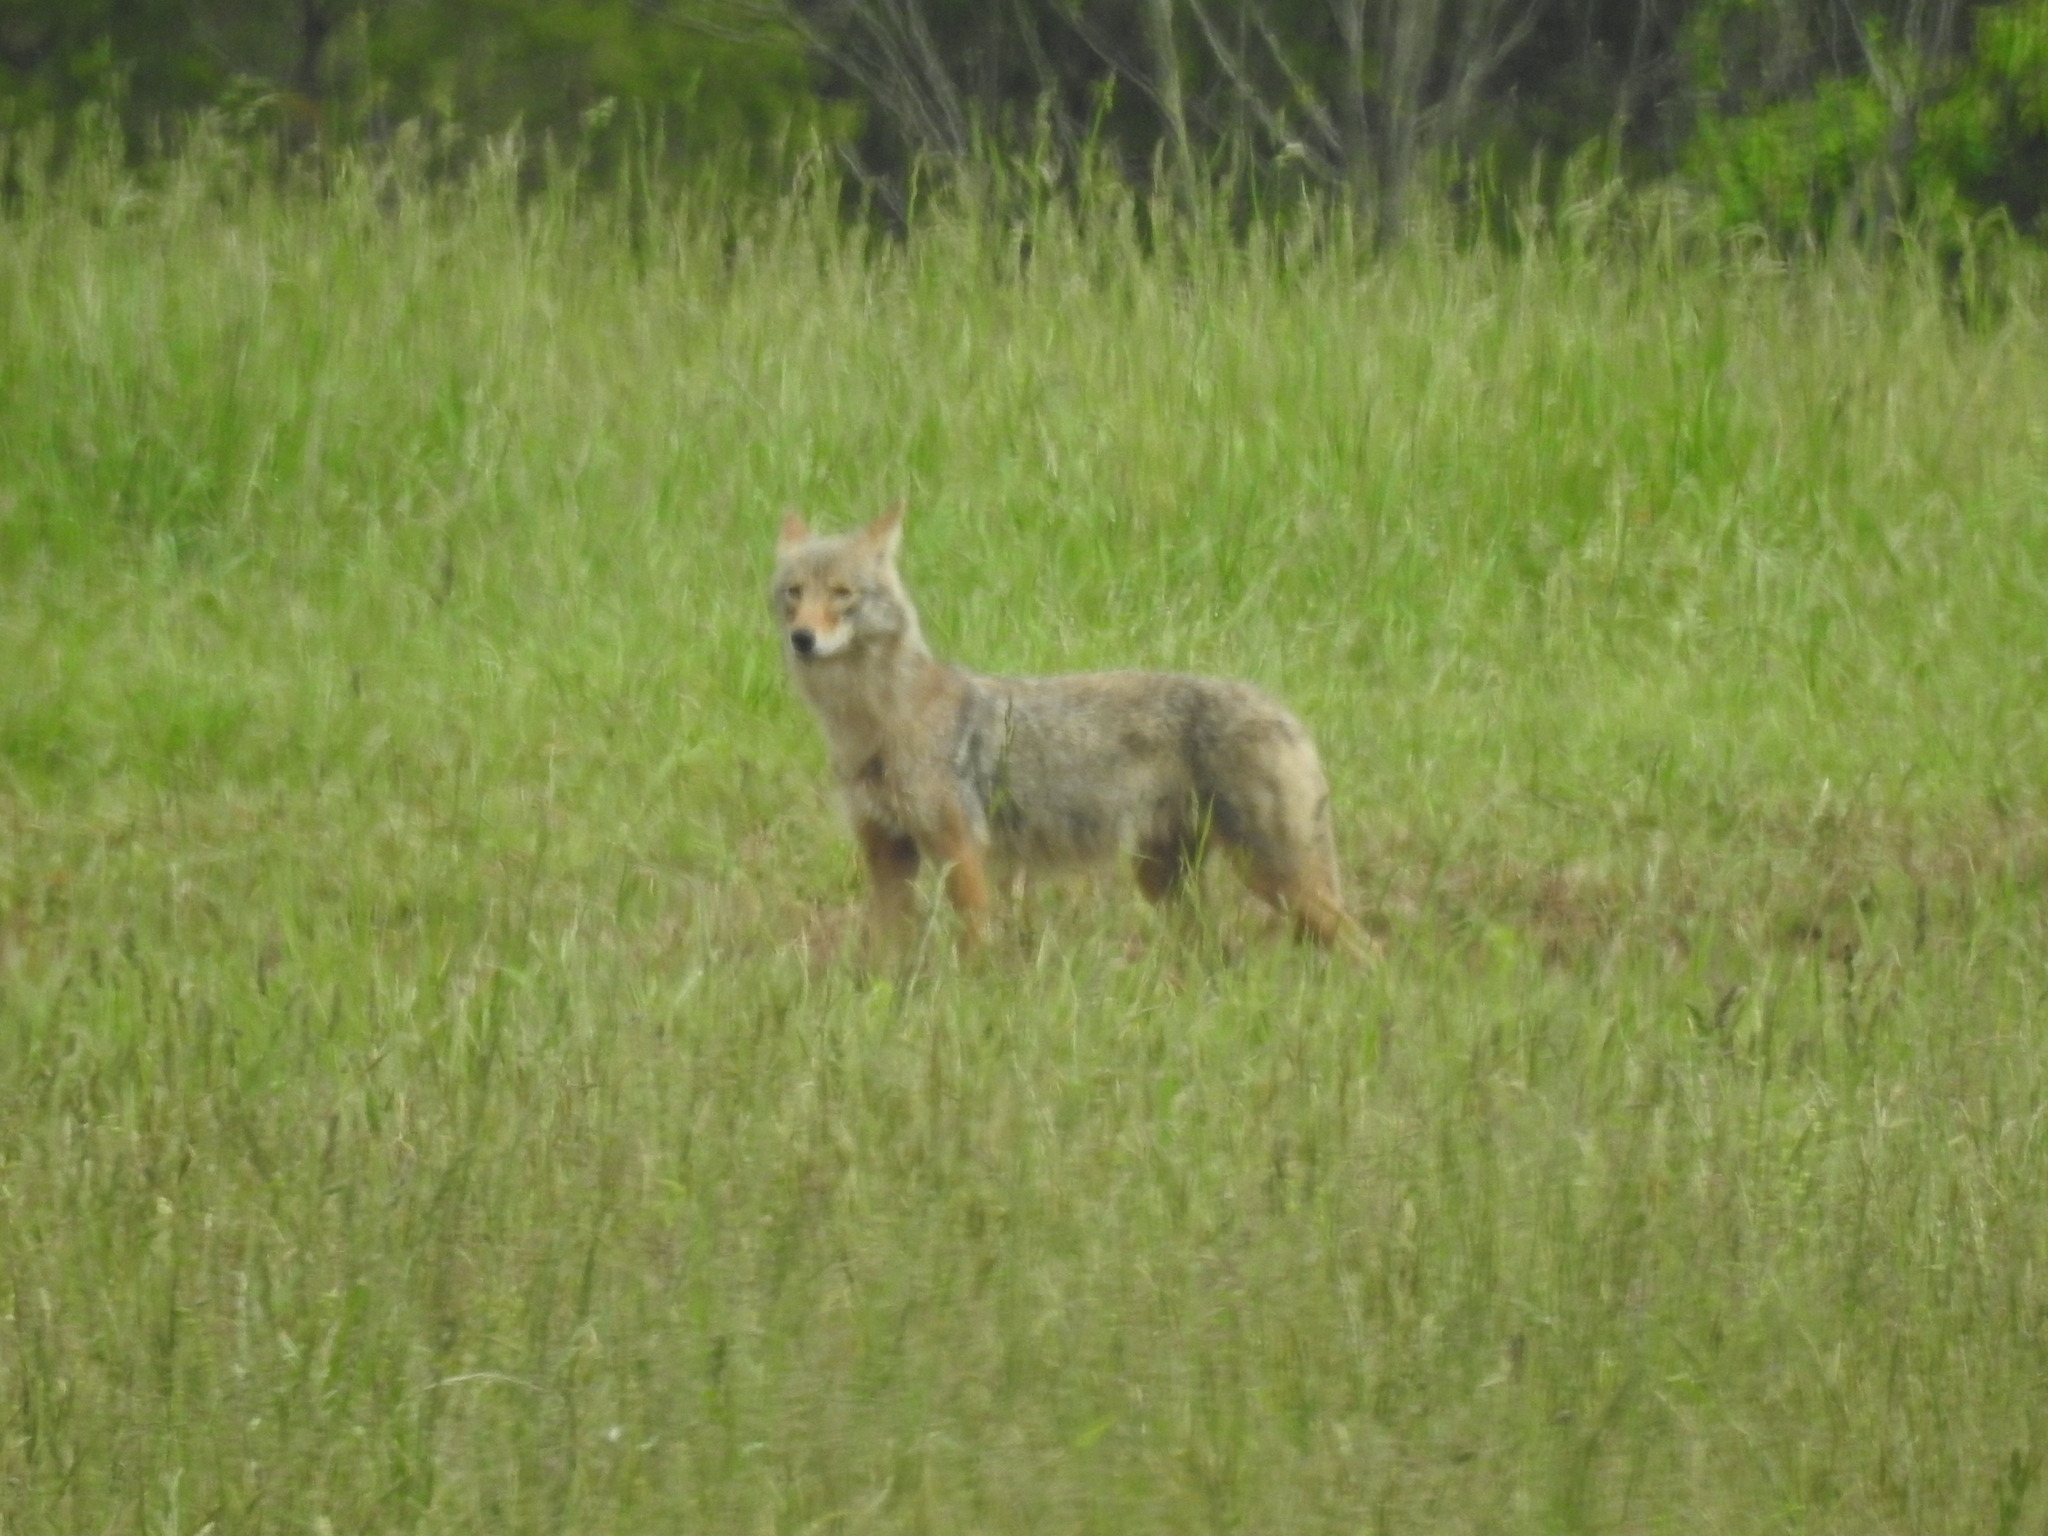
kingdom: Animalia
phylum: Chordata
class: Mammalia
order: Carnivora
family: Canidae
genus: Canis
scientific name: Canis latrans
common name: Coyote
